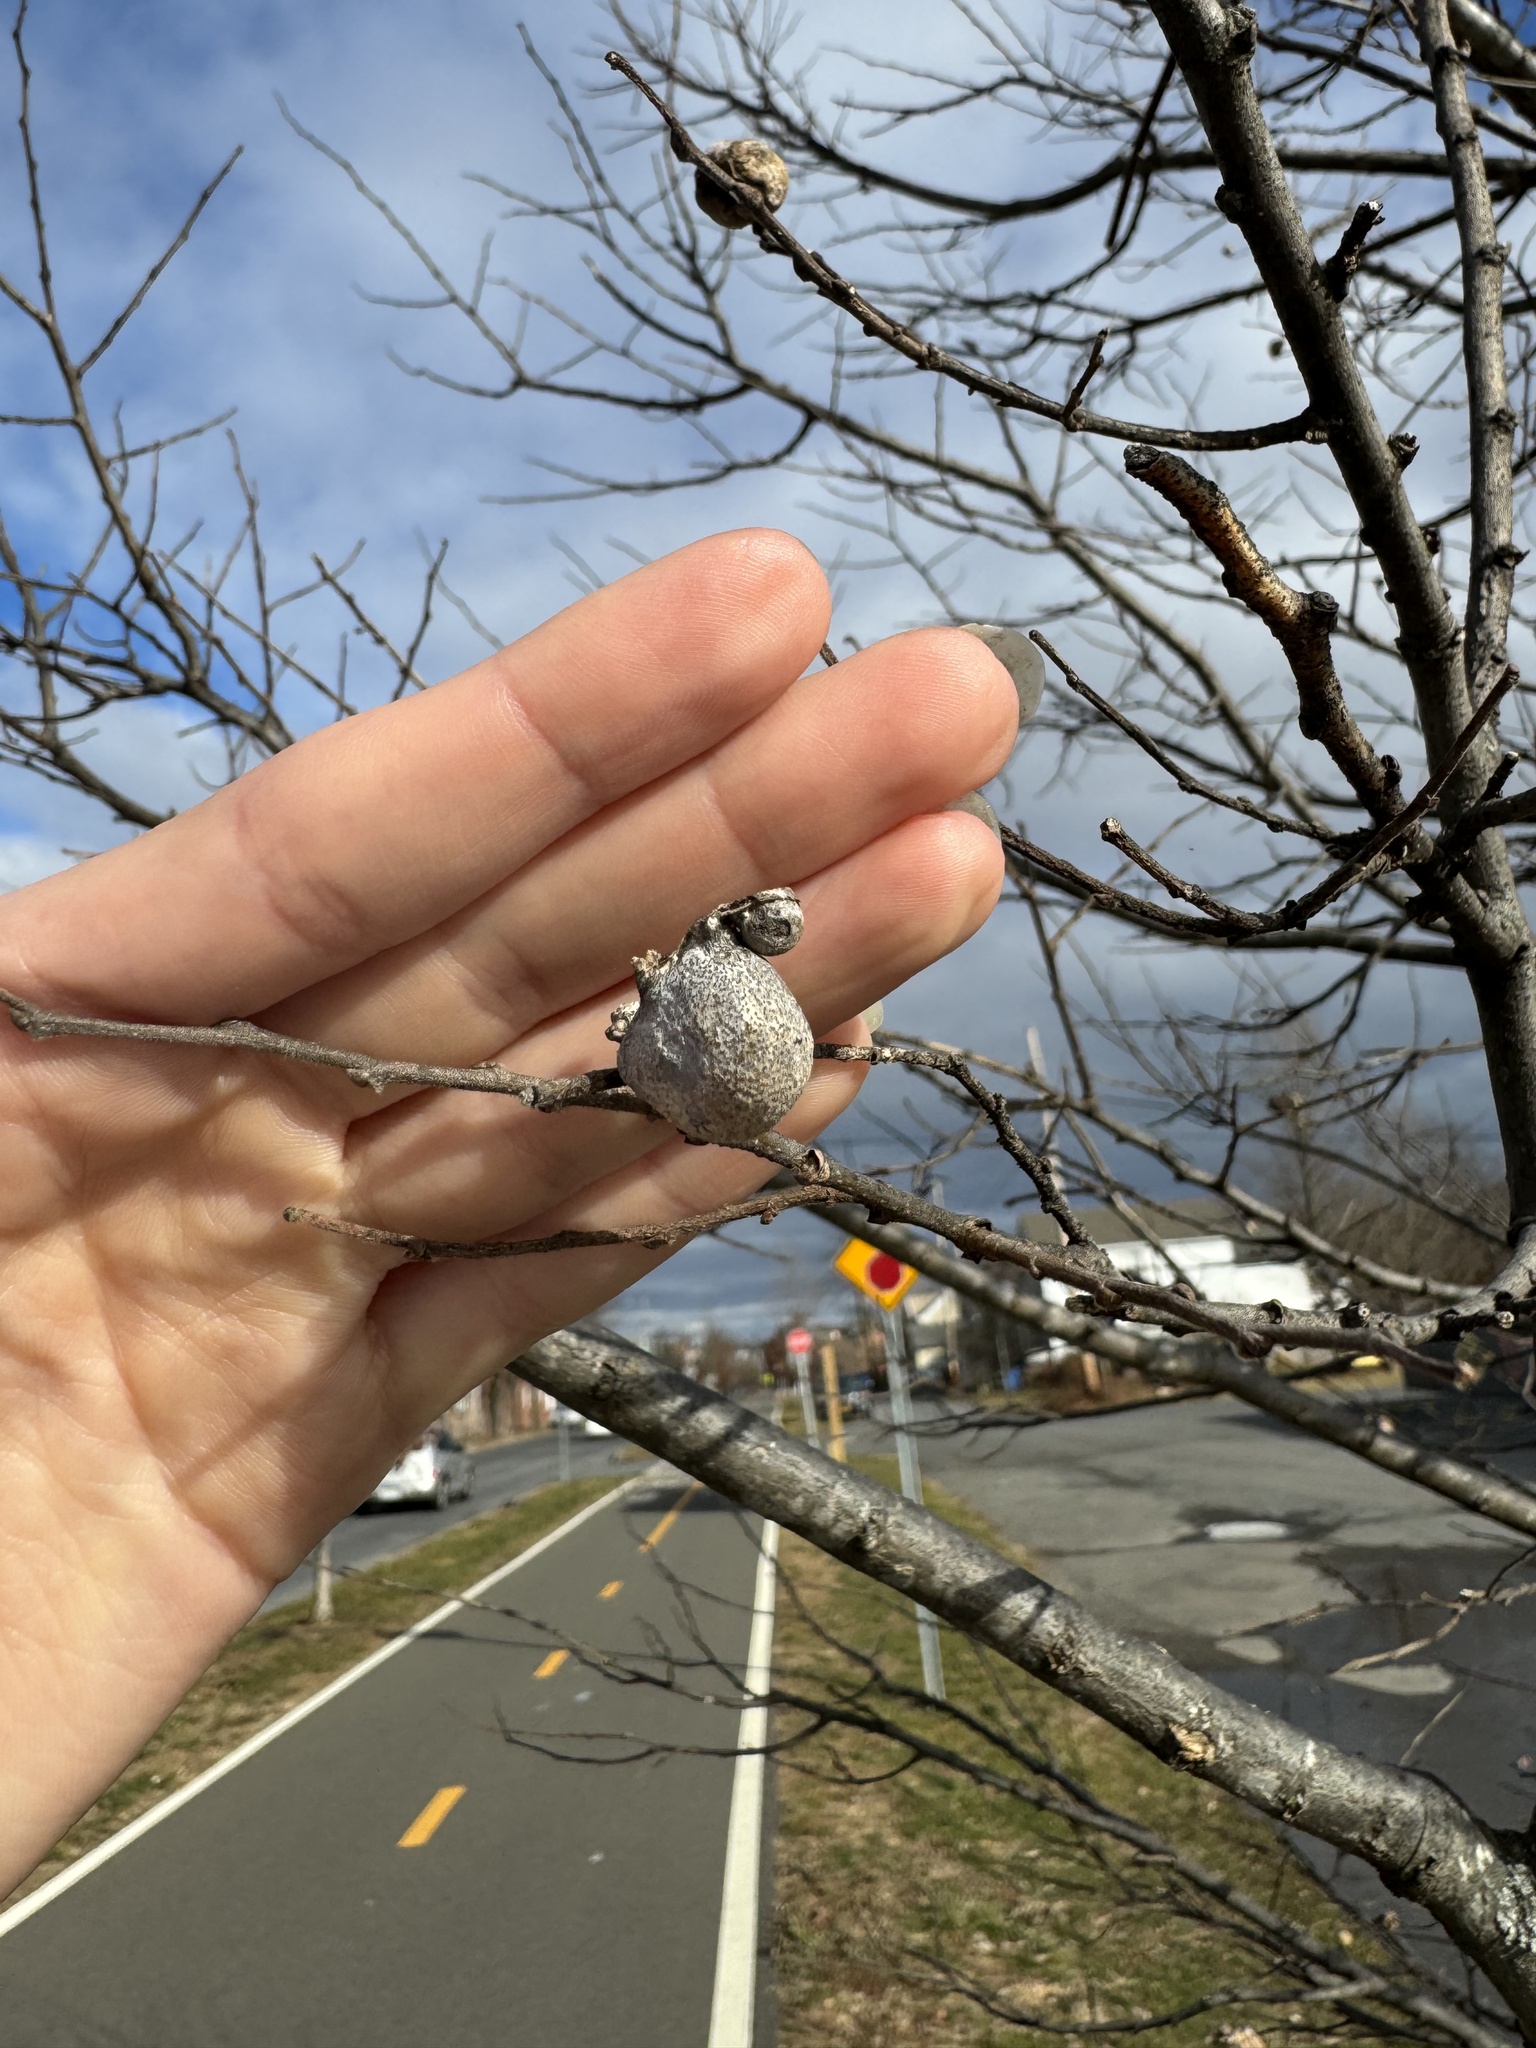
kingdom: Animalia
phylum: Arthropoda
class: Insecta
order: Hemiptera
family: Aphalaridae
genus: Pachypsylla
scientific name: Pachypsylla venusta
